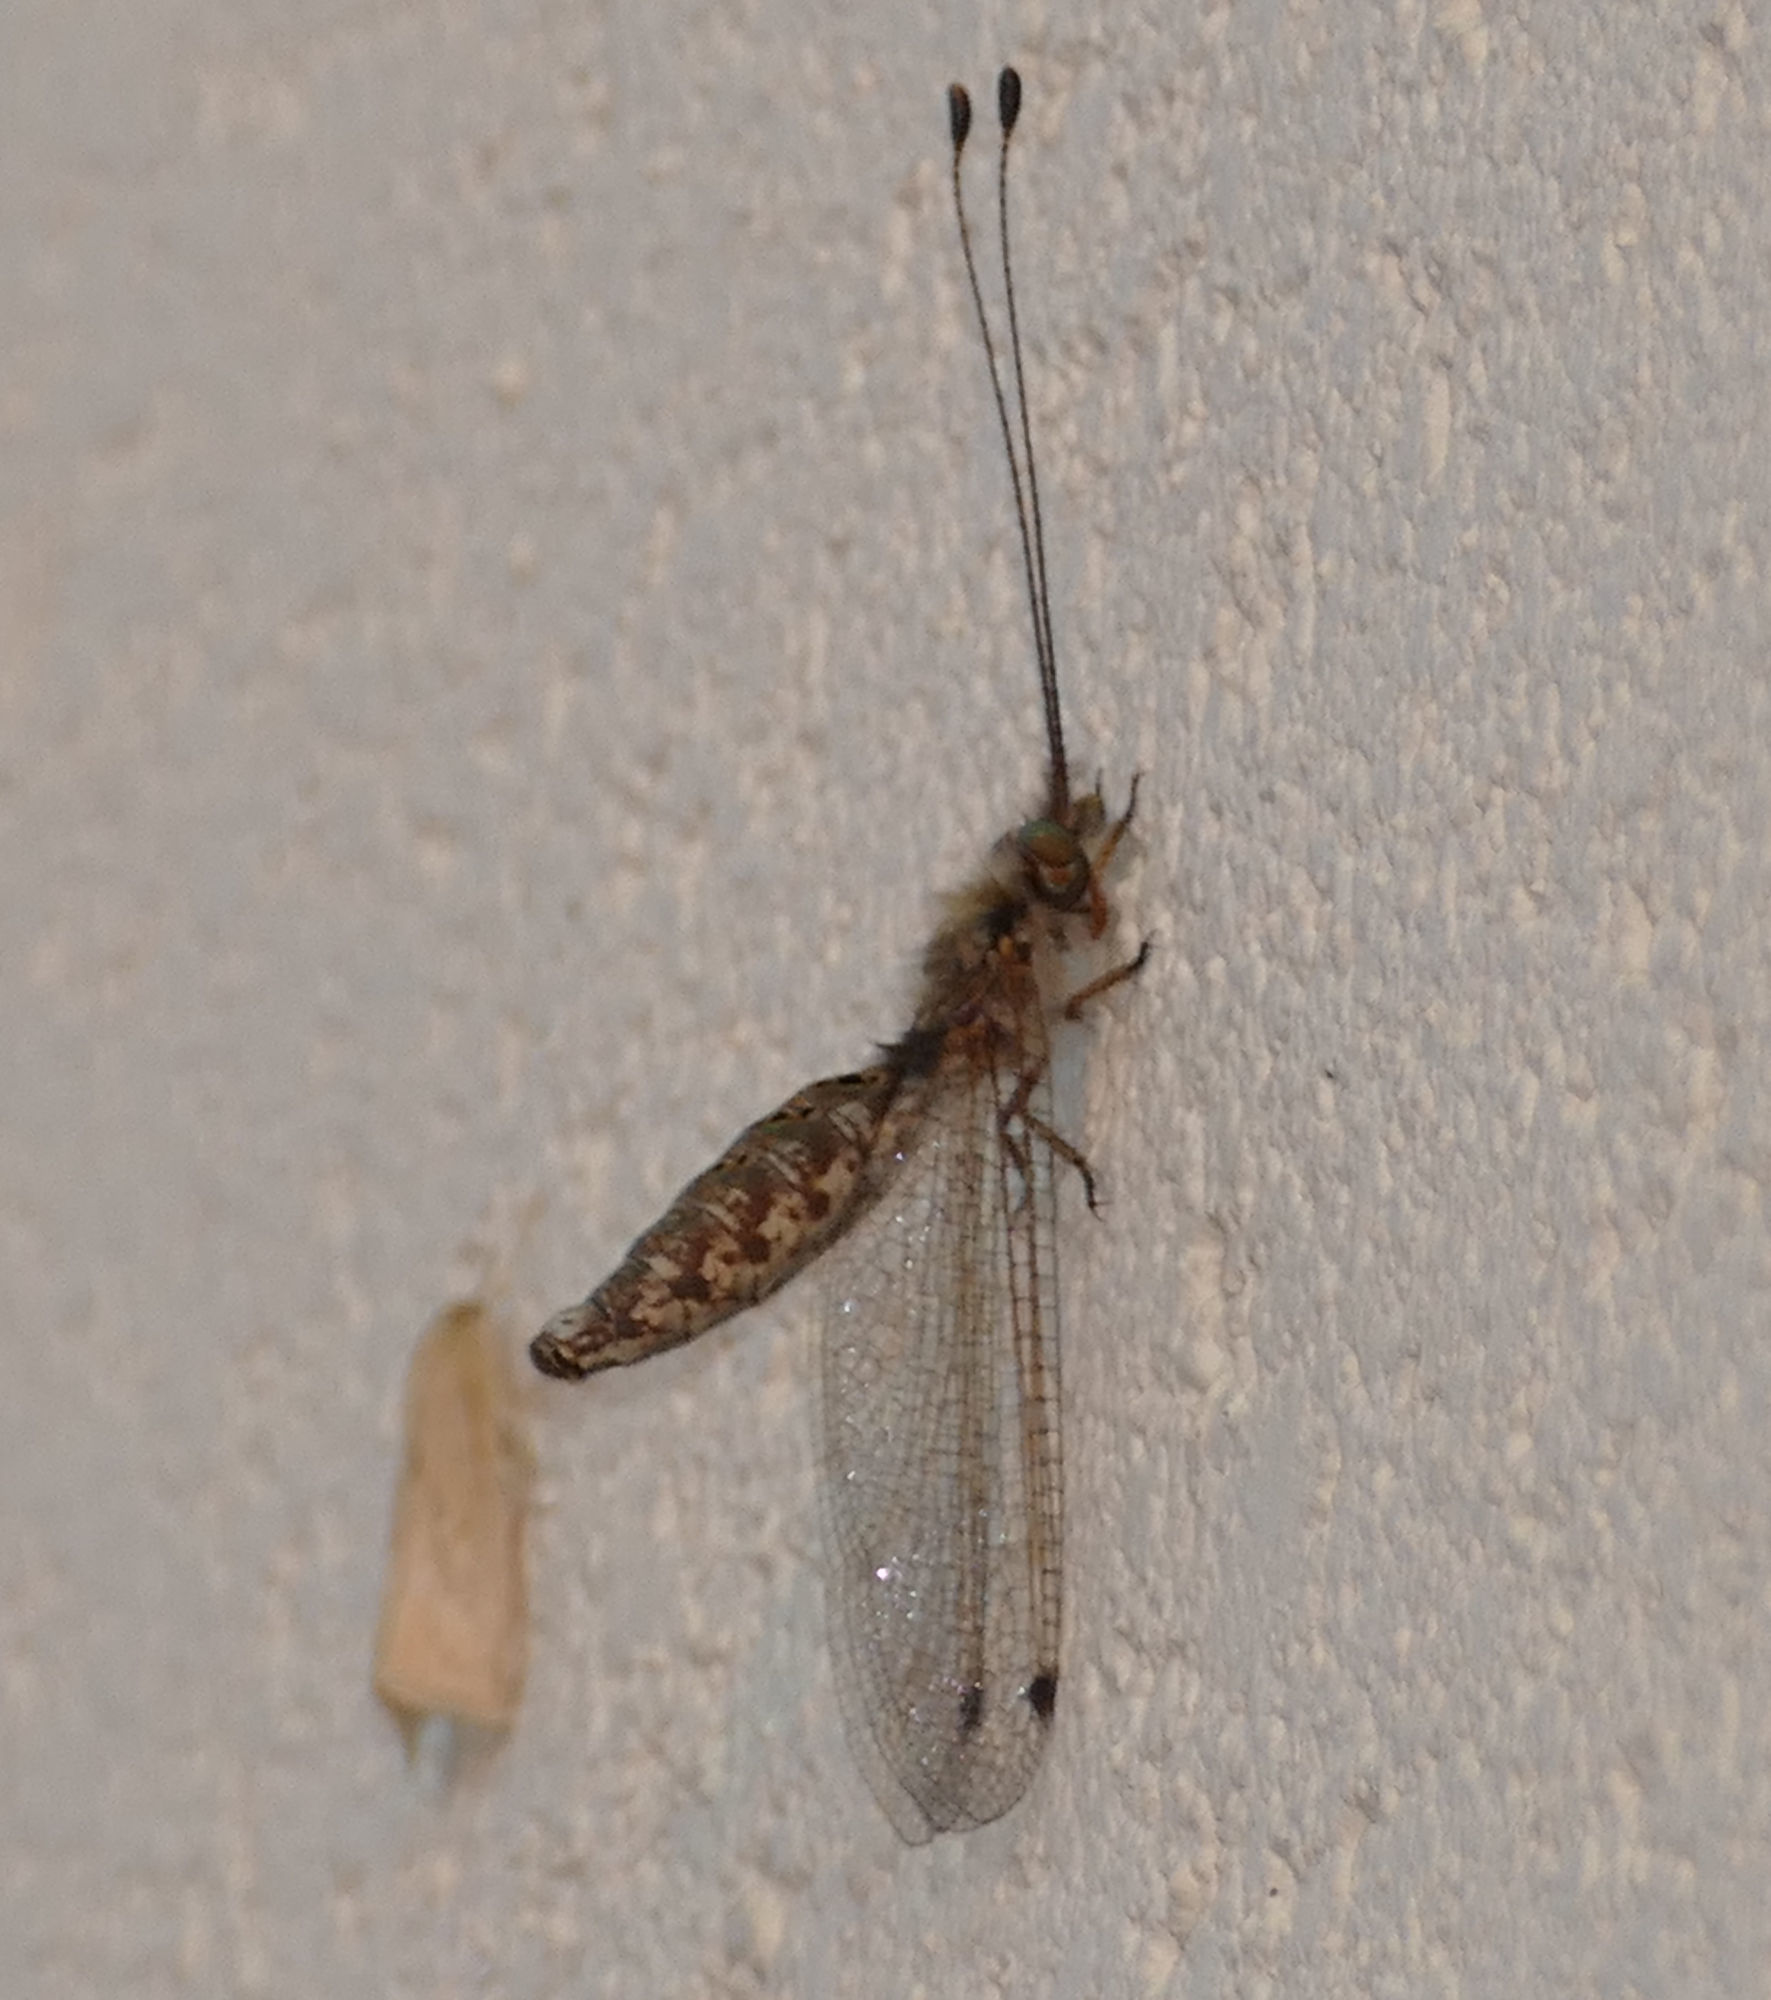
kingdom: Animalia
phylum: Arthropoda
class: Insecta
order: Neuroptera
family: Ascalaphidae
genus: Ululodes
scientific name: Ululodes macleayanus
